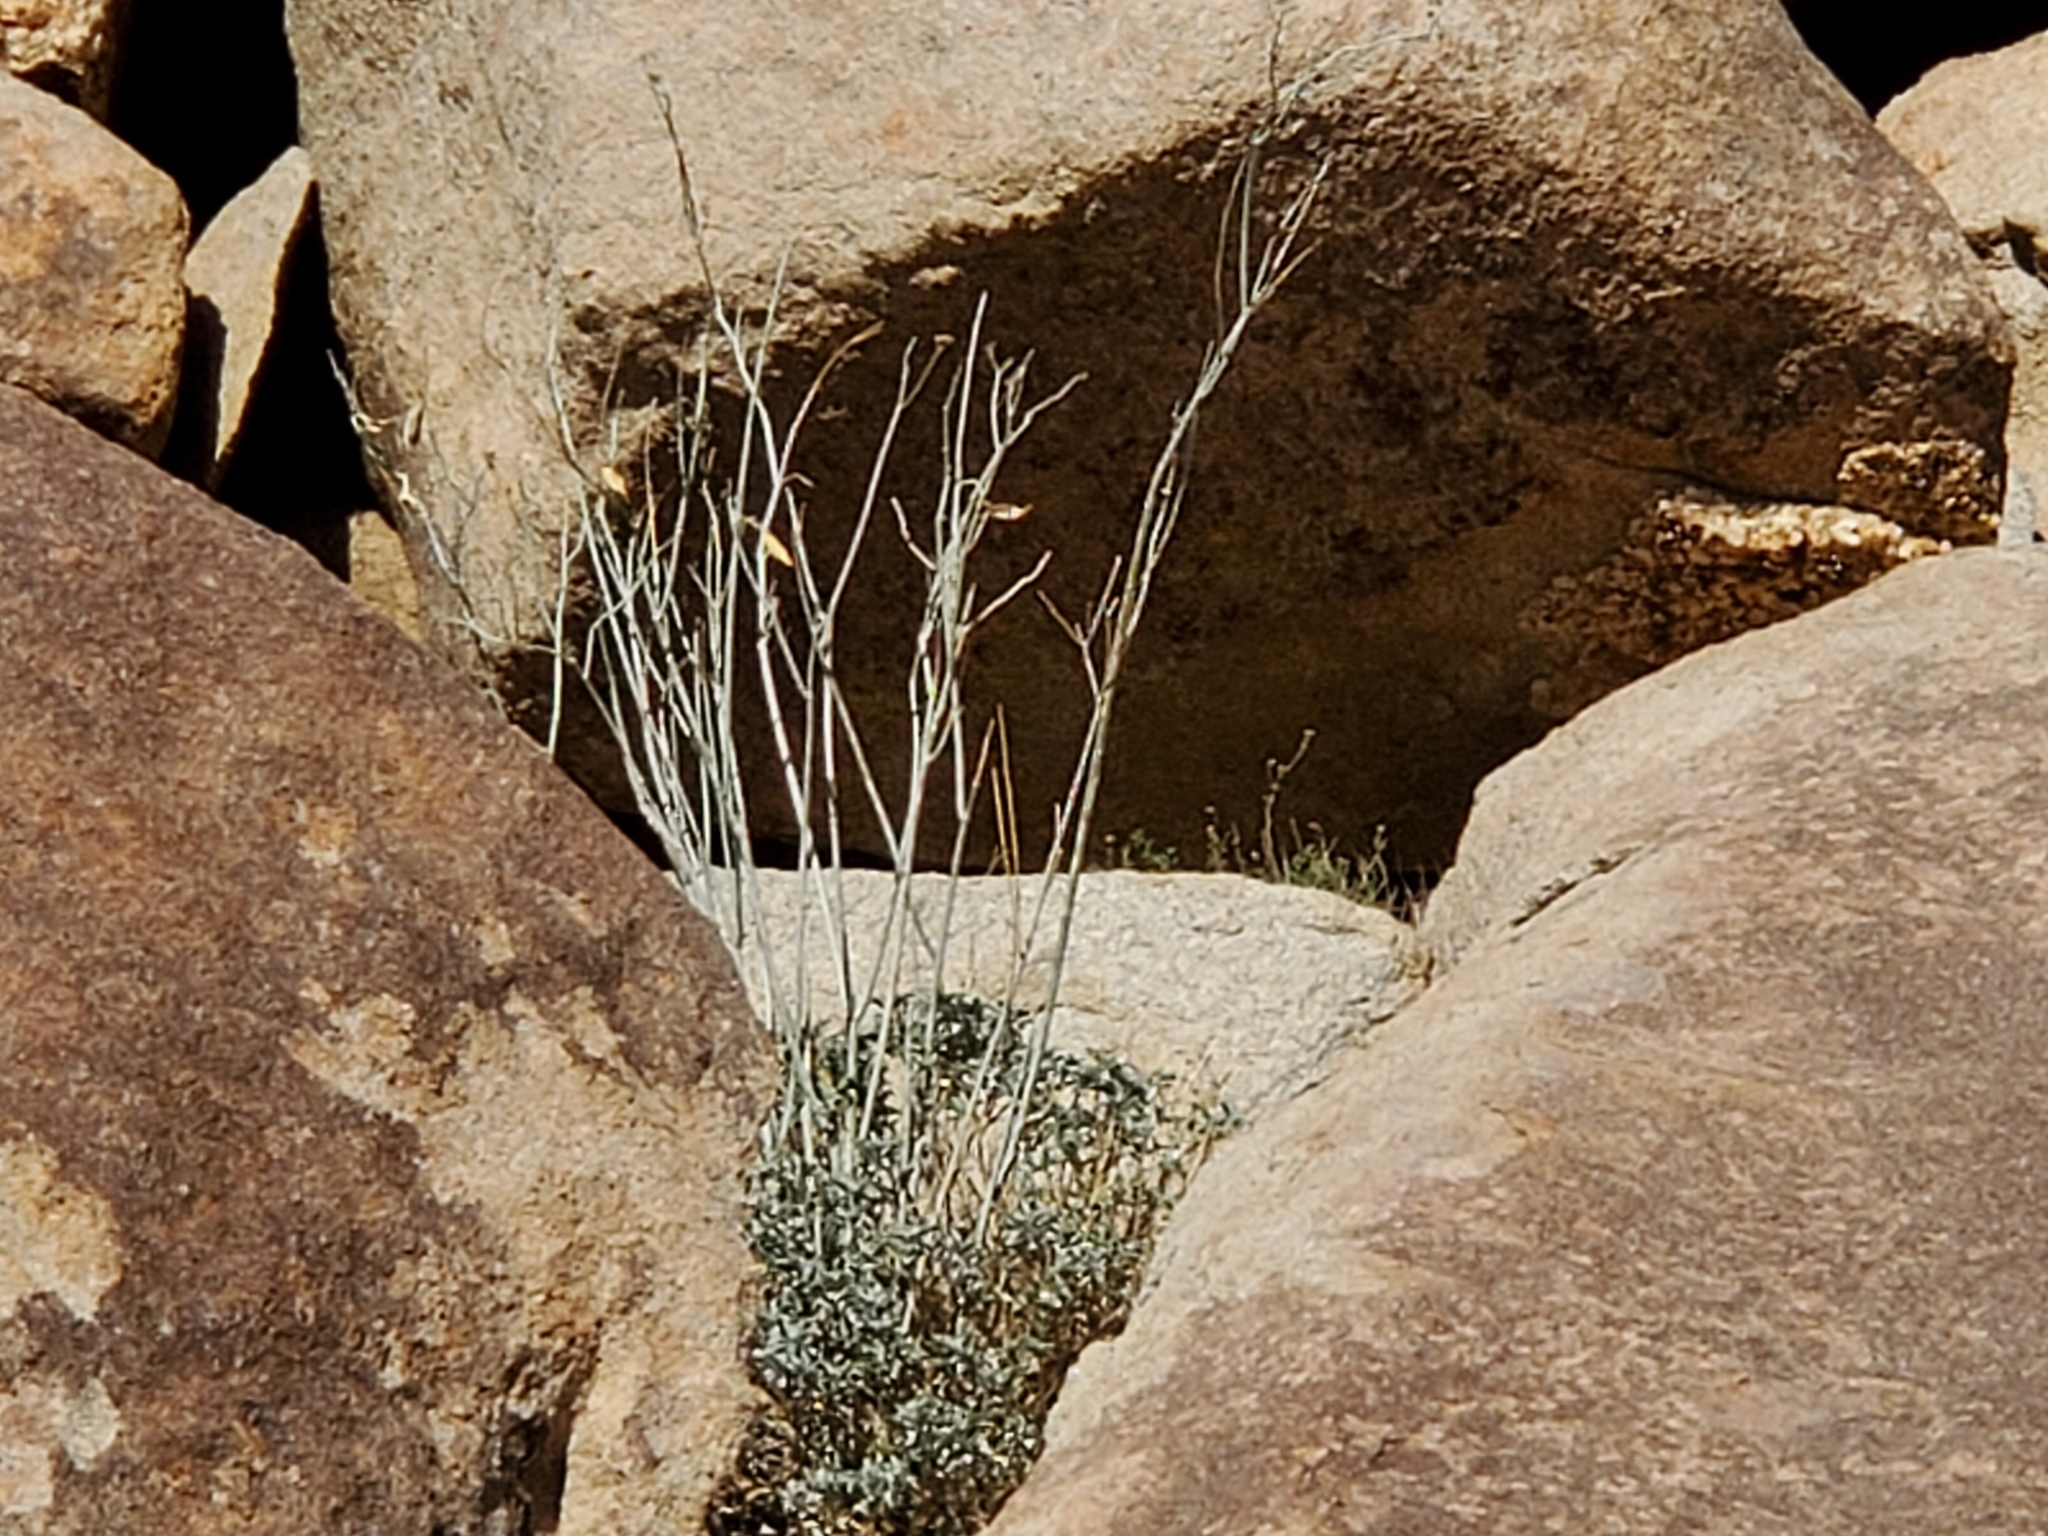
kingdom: Plantae
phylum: Tracheophyta
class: Magnoliopsida
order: Gentianales
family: Apocynaceae
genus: Asclepias
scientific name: Asclepias albicans
